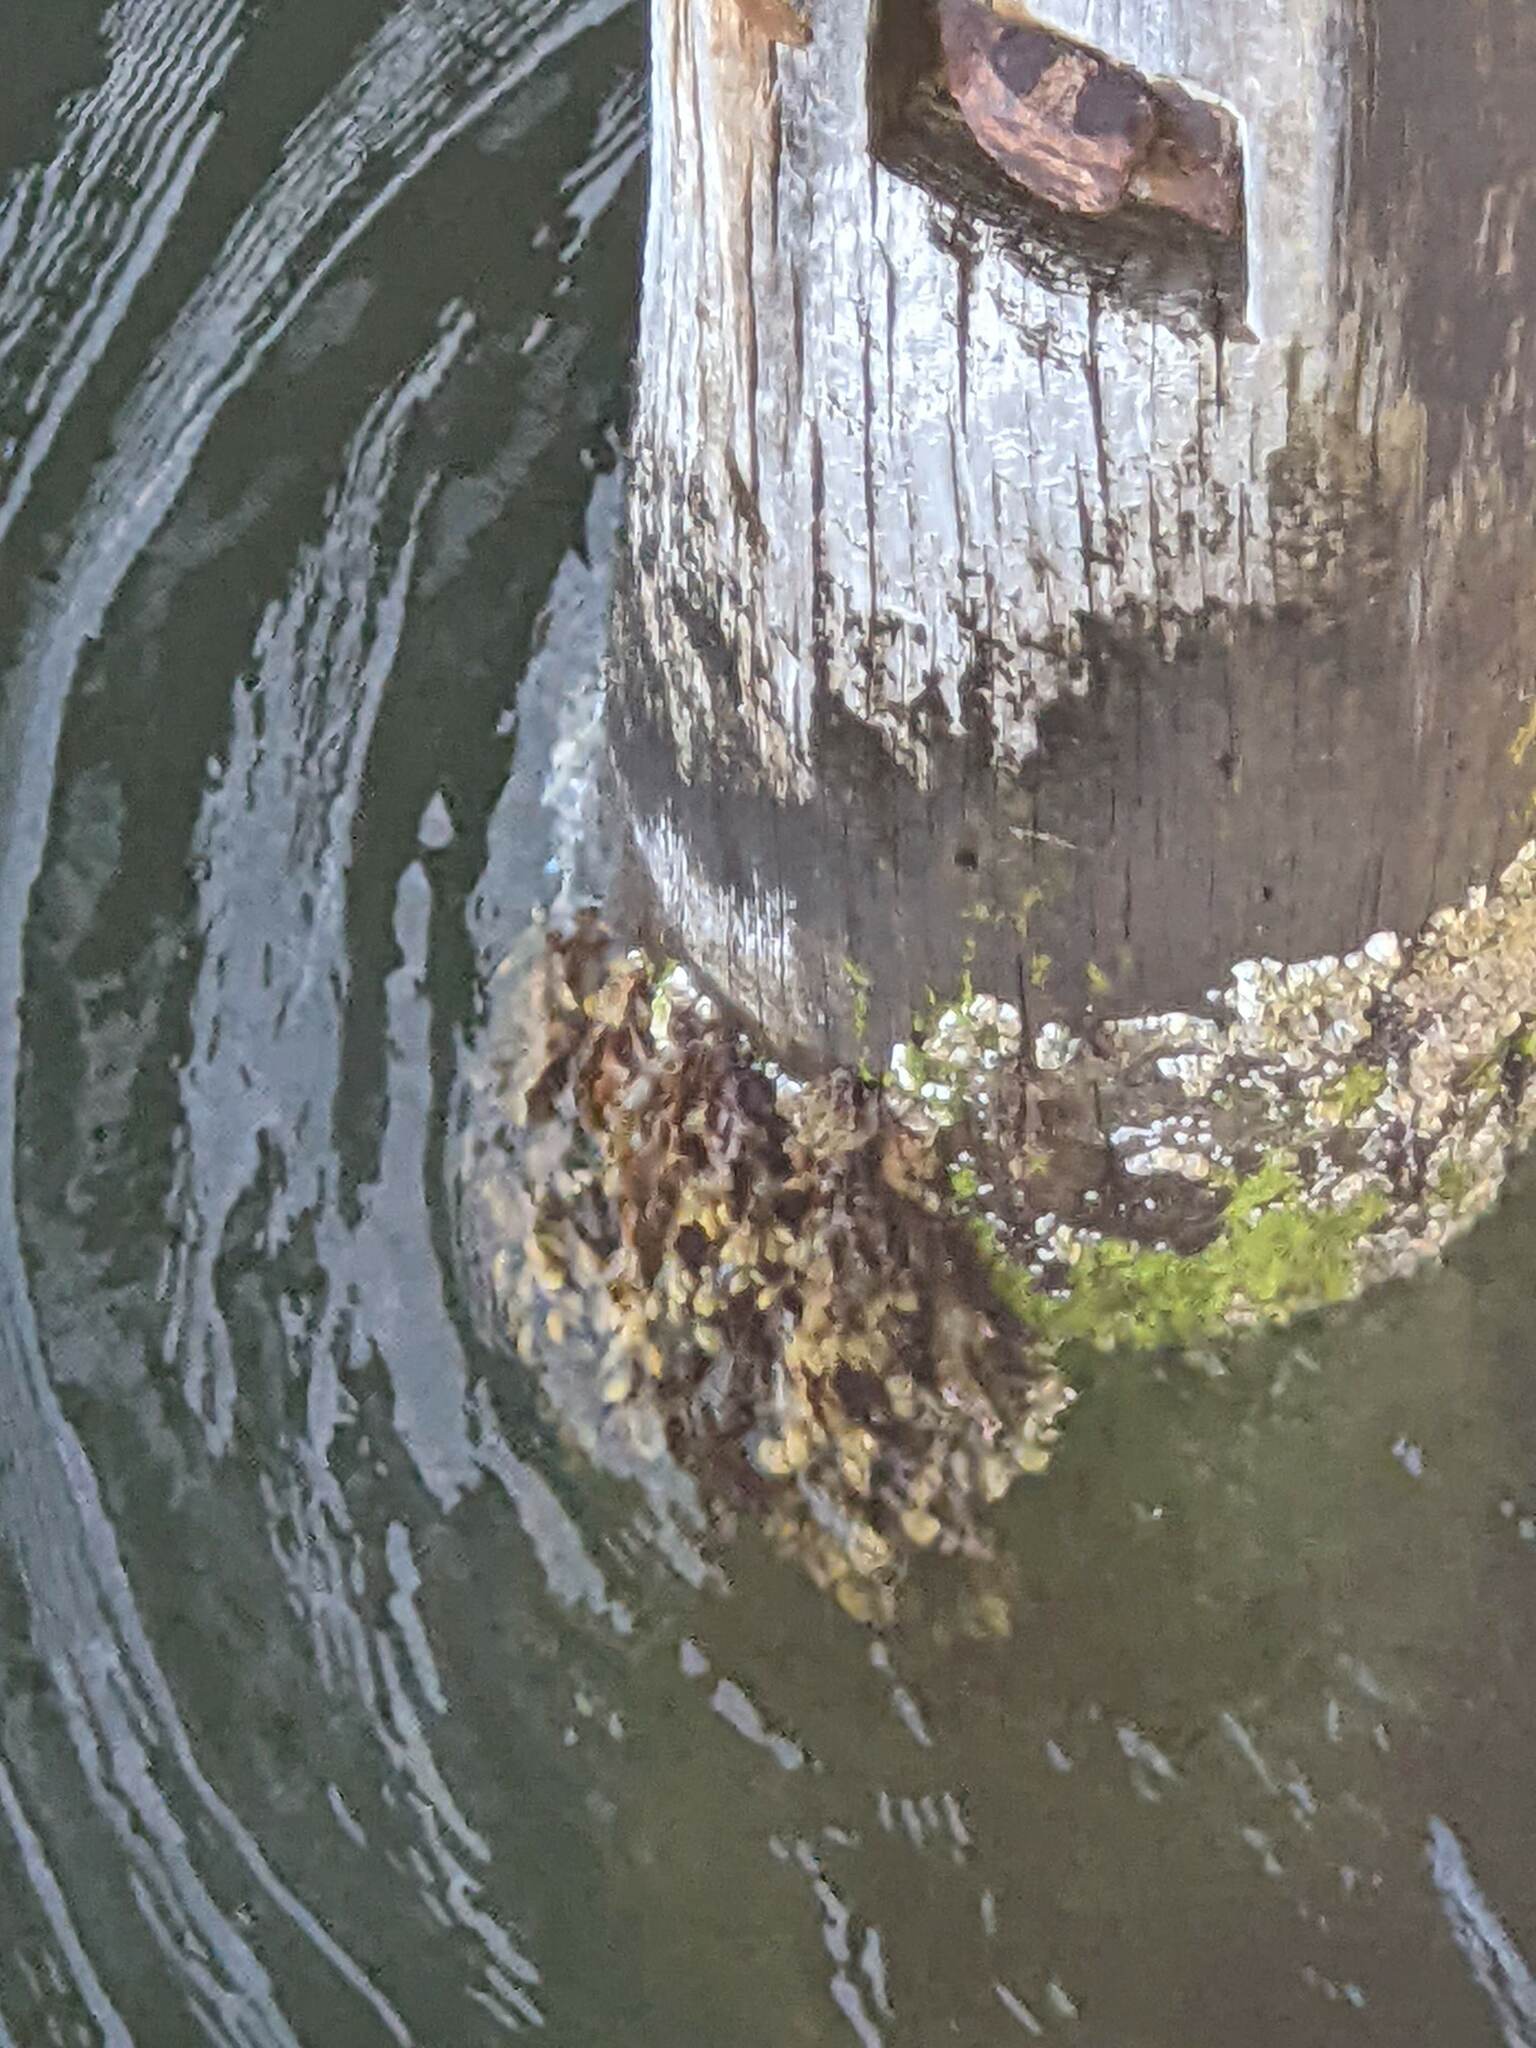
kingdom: Chromista
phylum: Ochrophyta
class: Phaeophyceae
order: Fucales
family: Fucaceae
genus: Fucus
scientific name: Fucus spiralis
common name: Spiral wrack
